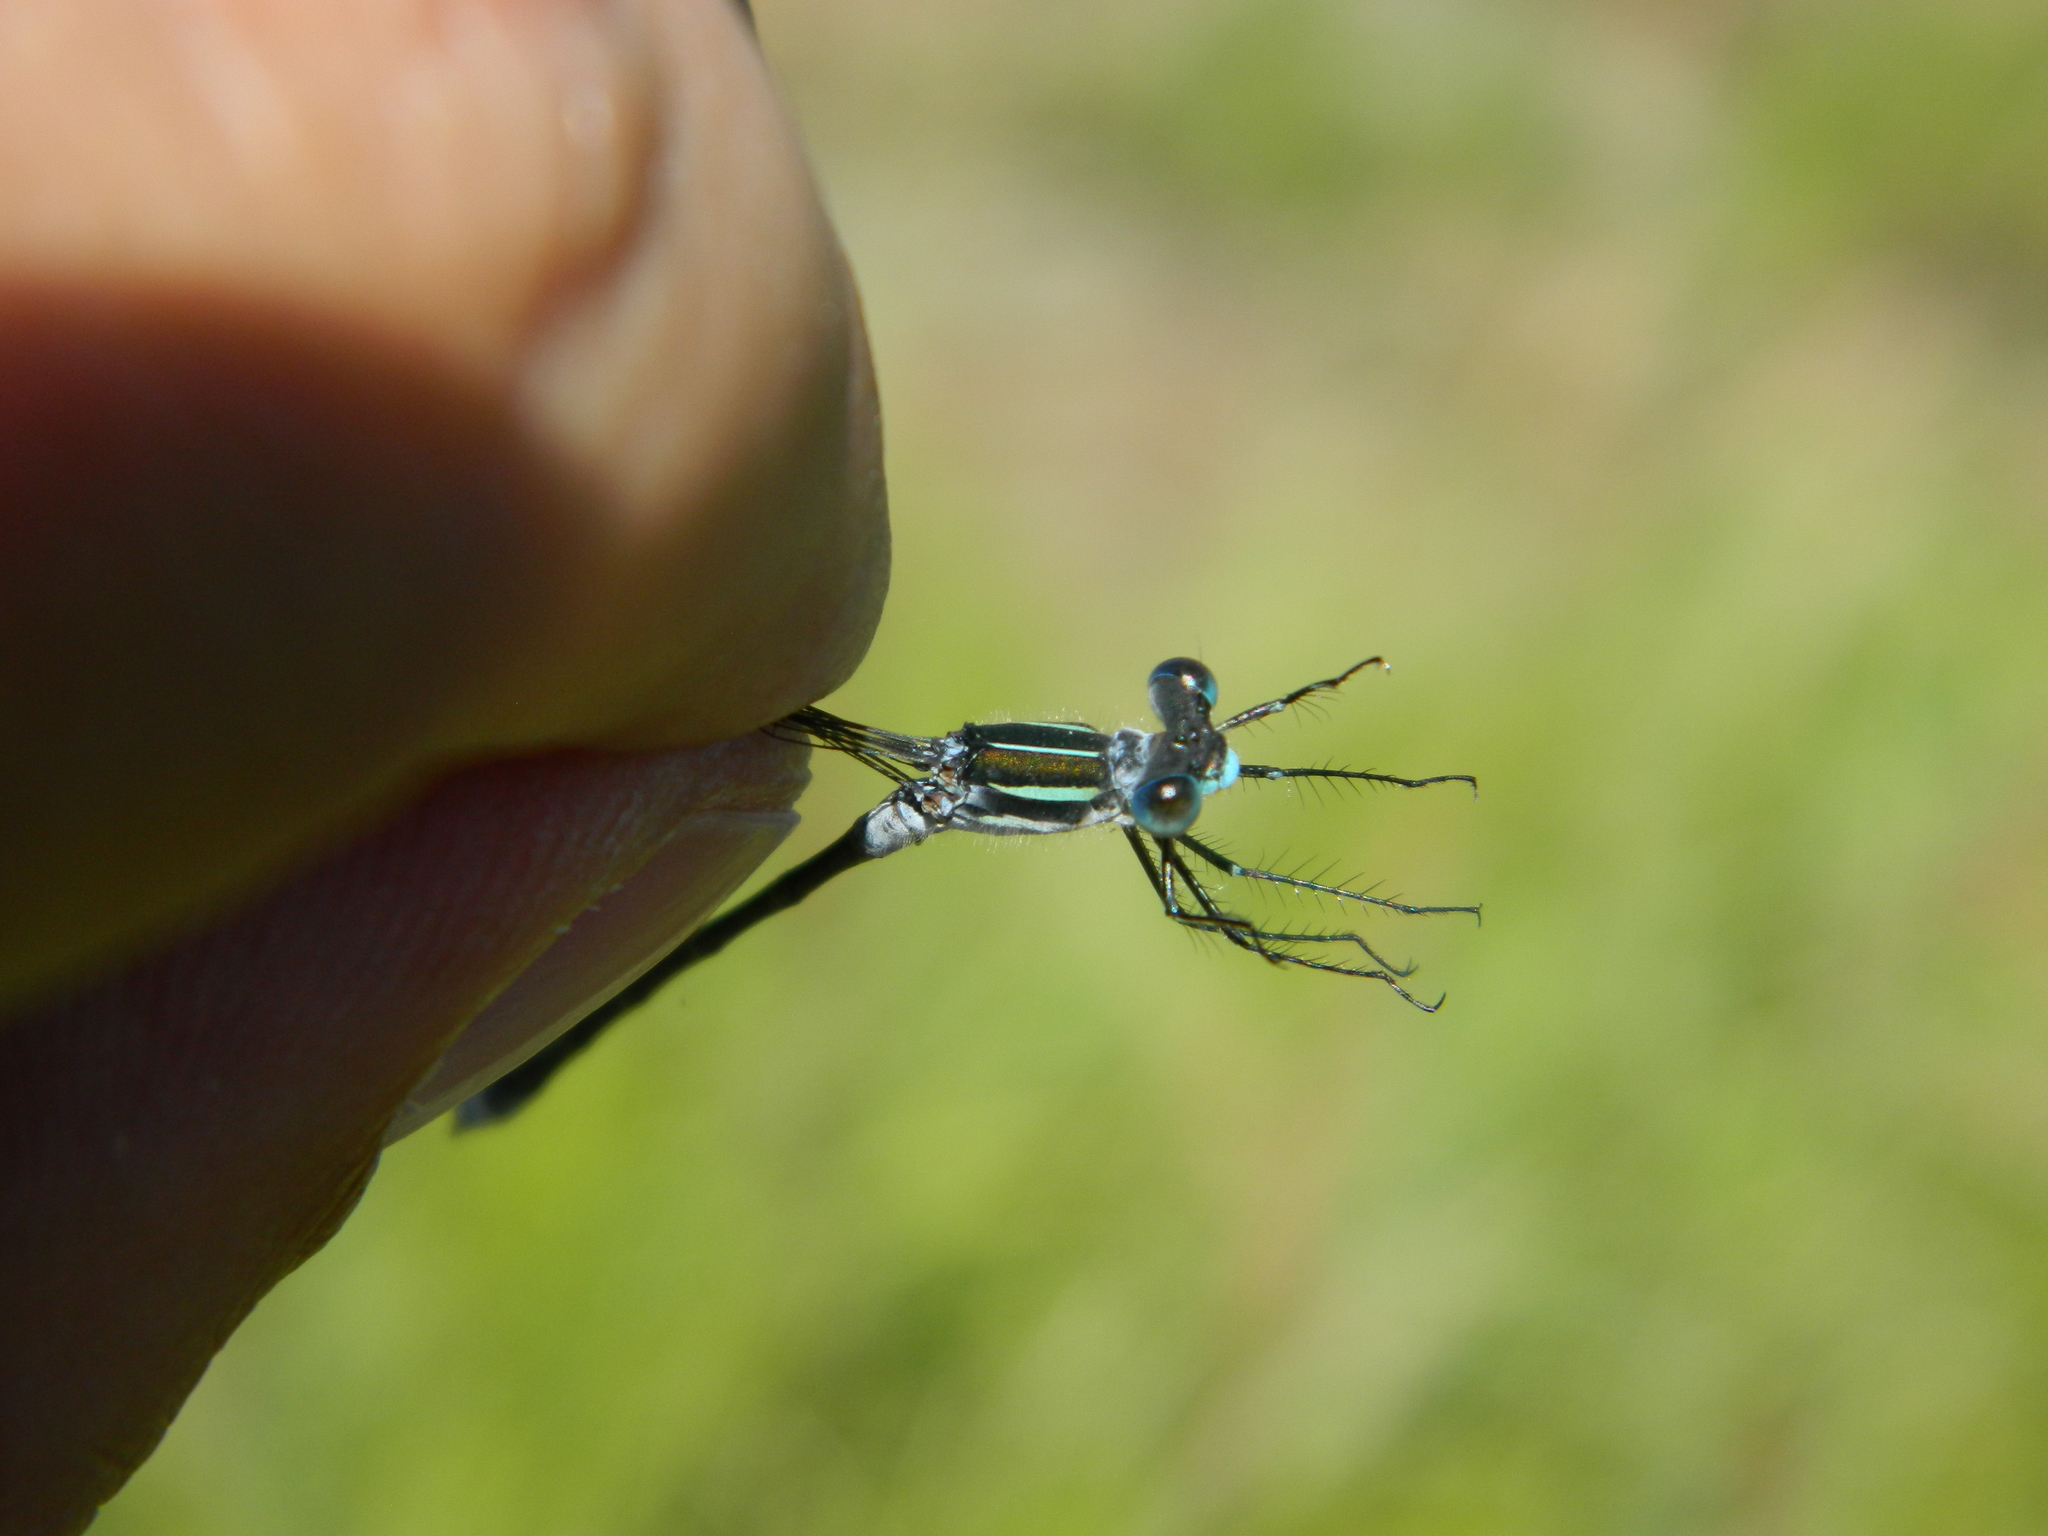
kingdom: Animalia
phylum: Arthropoda
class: Insecta
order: Odonata
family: Lestidae
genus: Lestes
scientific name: Lestes disjunctus
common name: Northern spreadwing
